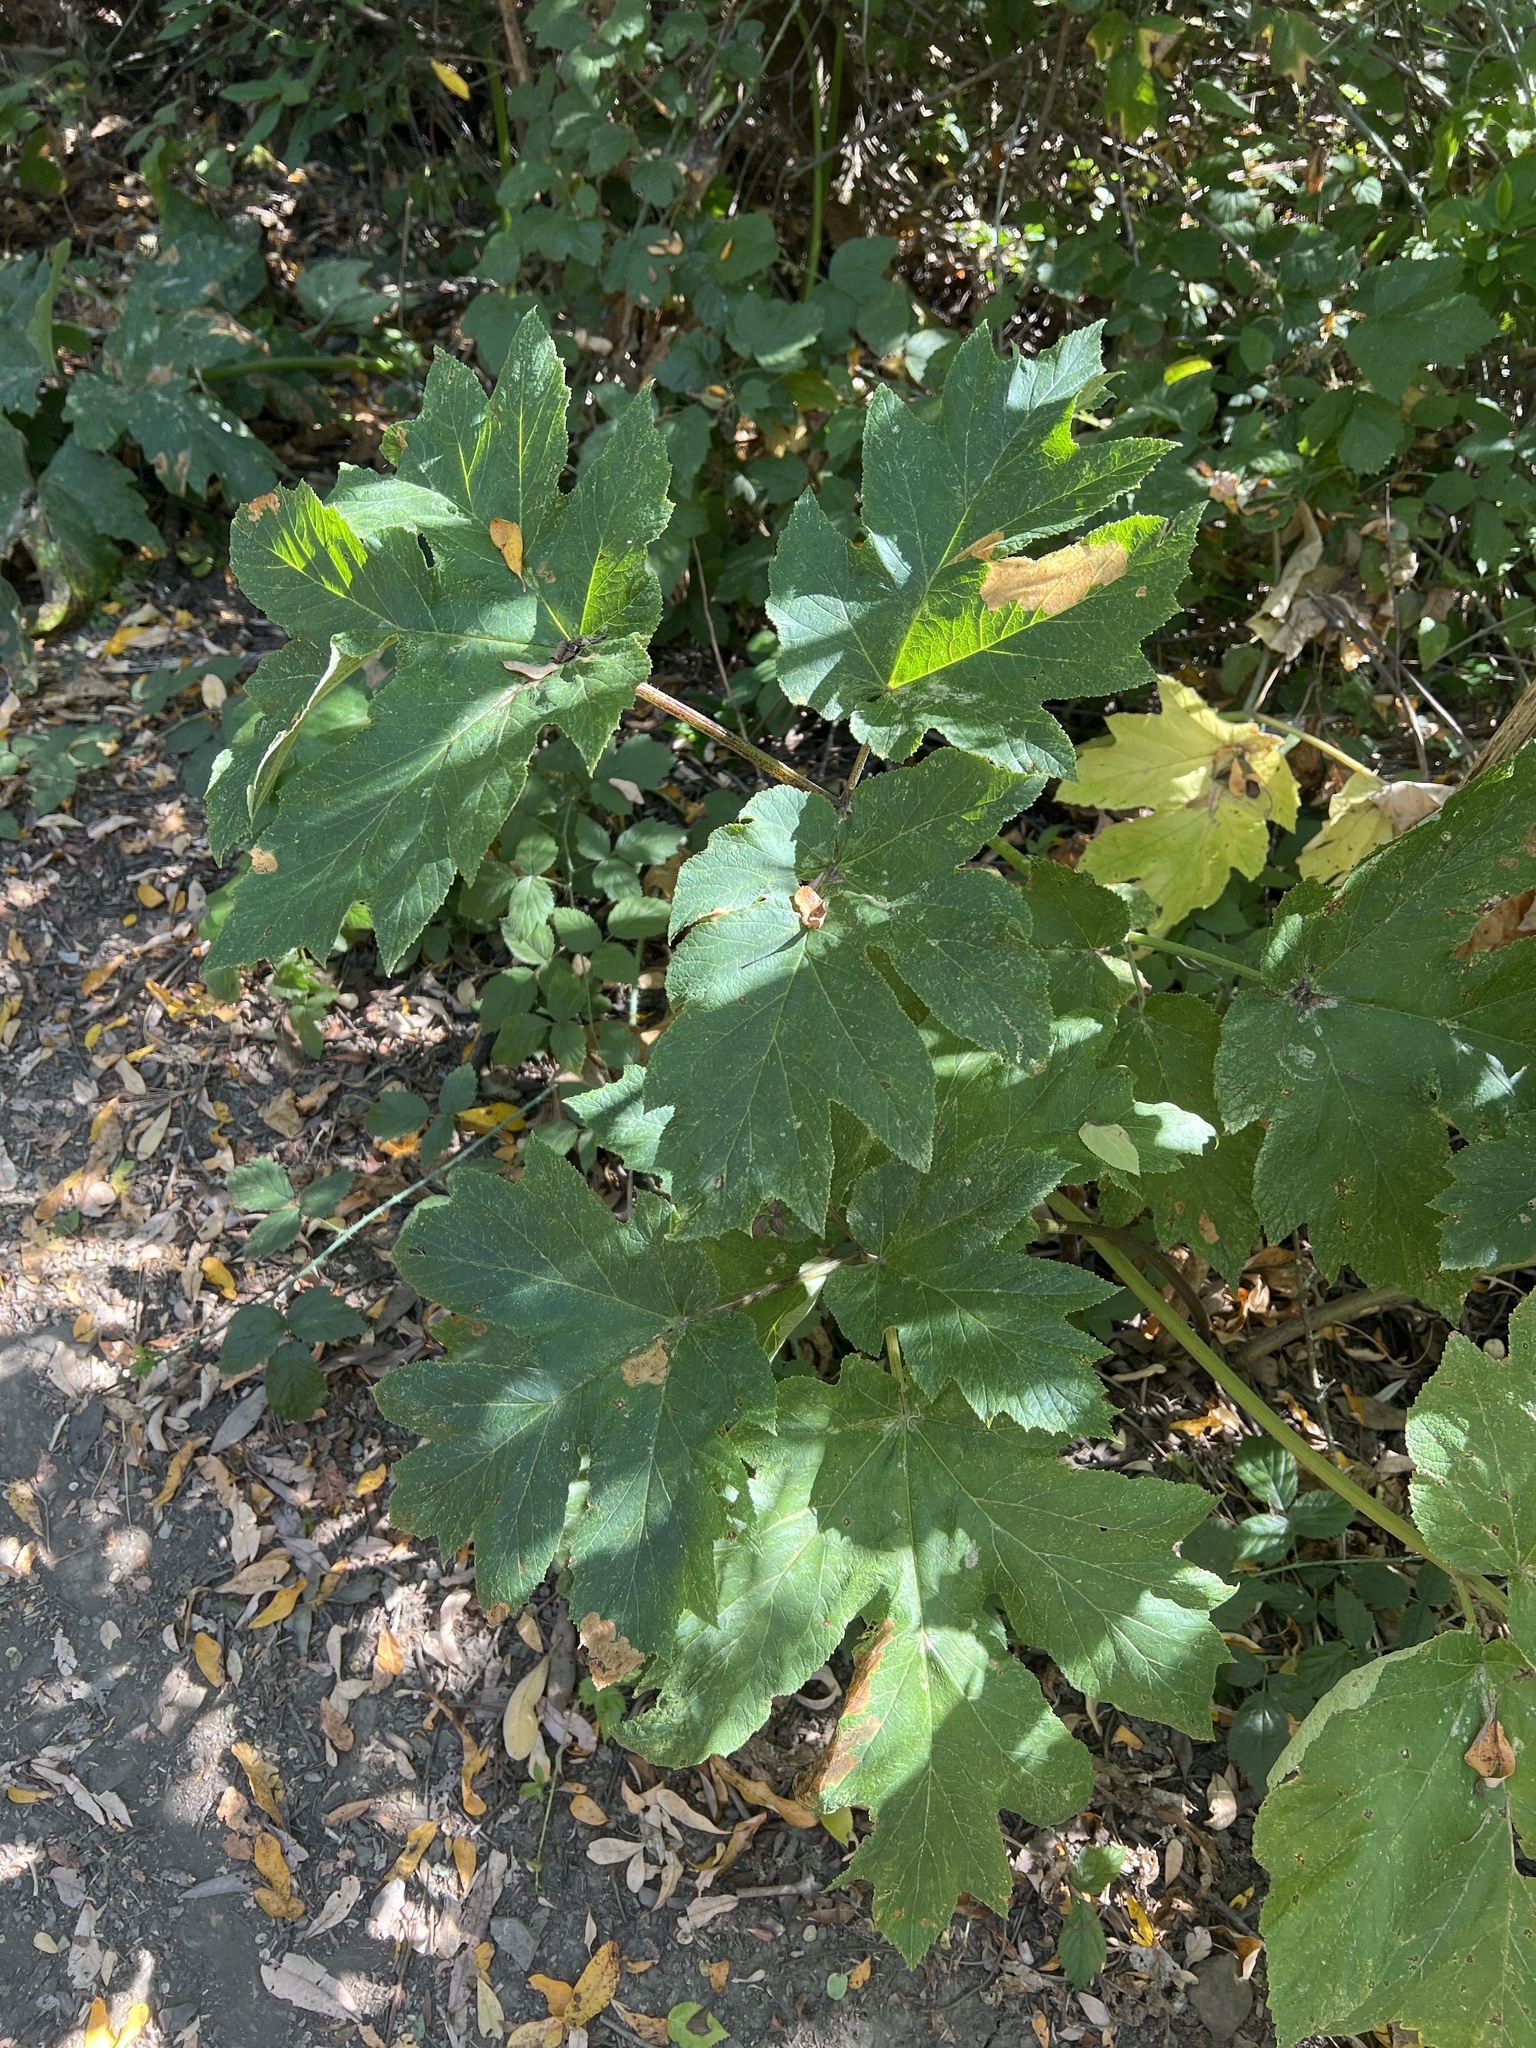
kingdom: Plantae
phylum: Tracheophyta
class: Magnoliopsida
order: Apiales
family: Apiaceae
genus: Heracleum
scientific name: Heracleum maximum
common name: American cow parsnip
